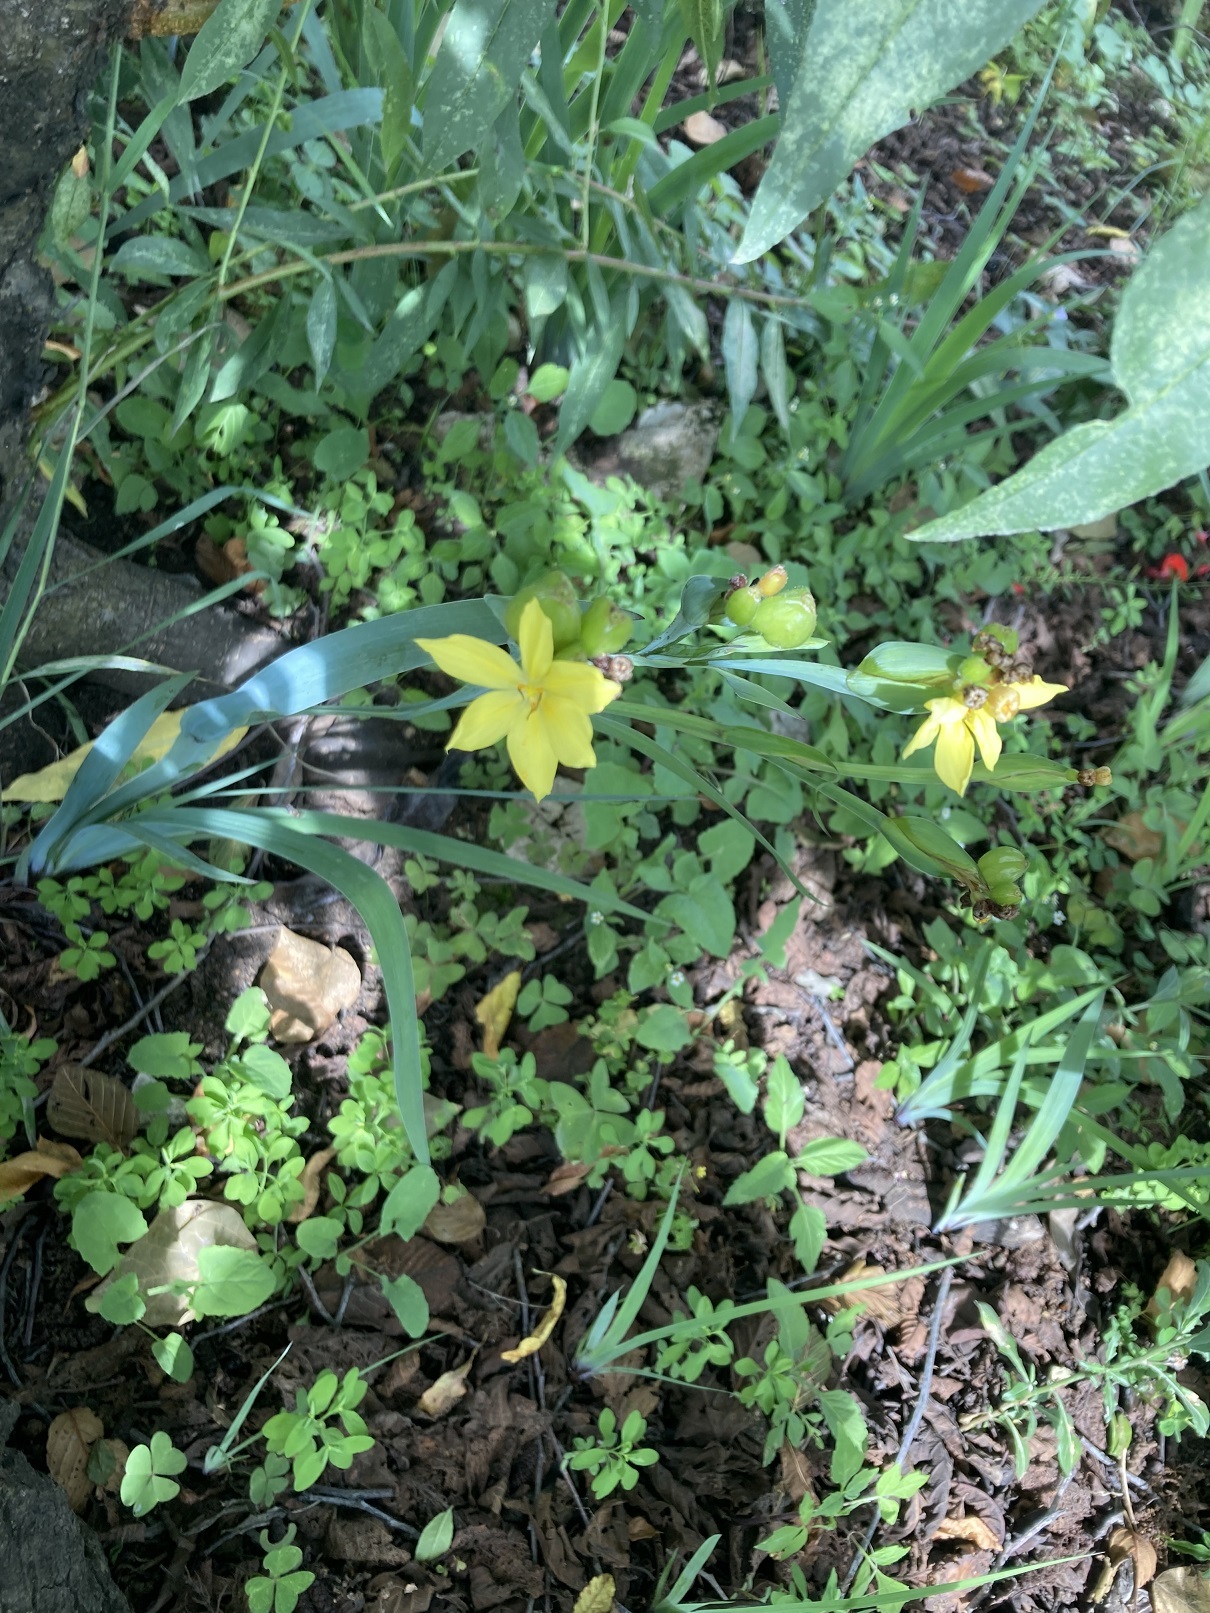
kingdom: Plantae
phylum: Tracheophyta
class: Liliopsida
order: Asparagales
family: Iridaceae
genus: Sisyrinchium
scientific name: Sisyrinchium angustissimum
